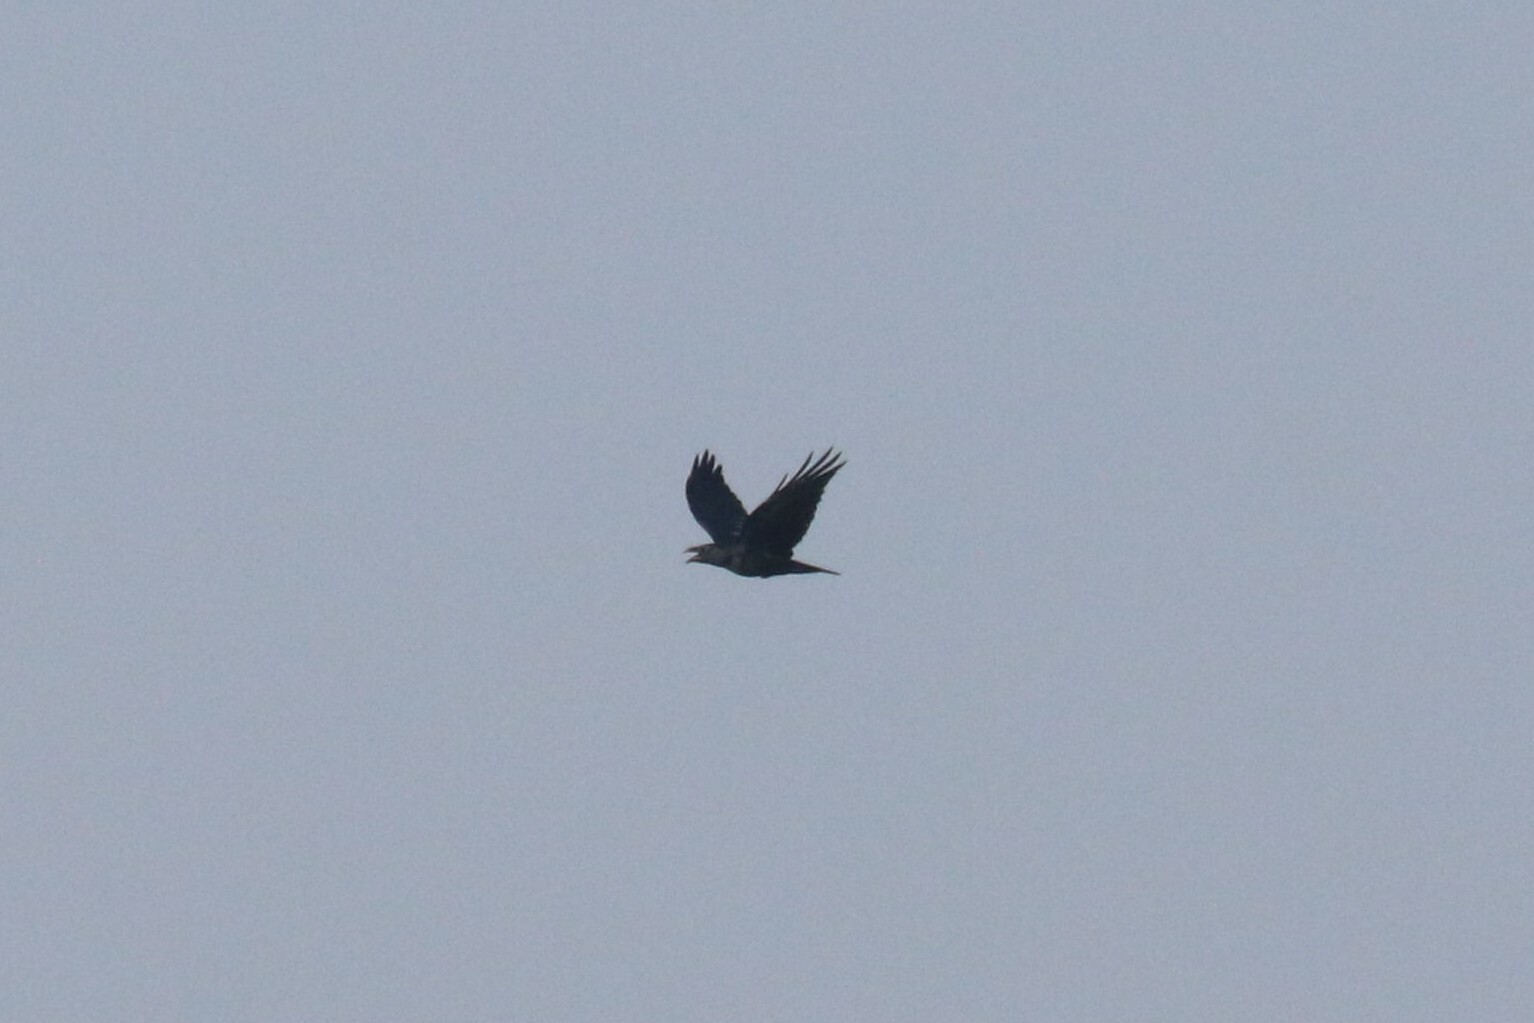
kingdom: Animalia
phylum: Chordata
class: Aves
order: Passeriformes
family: Corvidae
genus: Corvus
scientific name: Corvus corax
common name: Common raven
